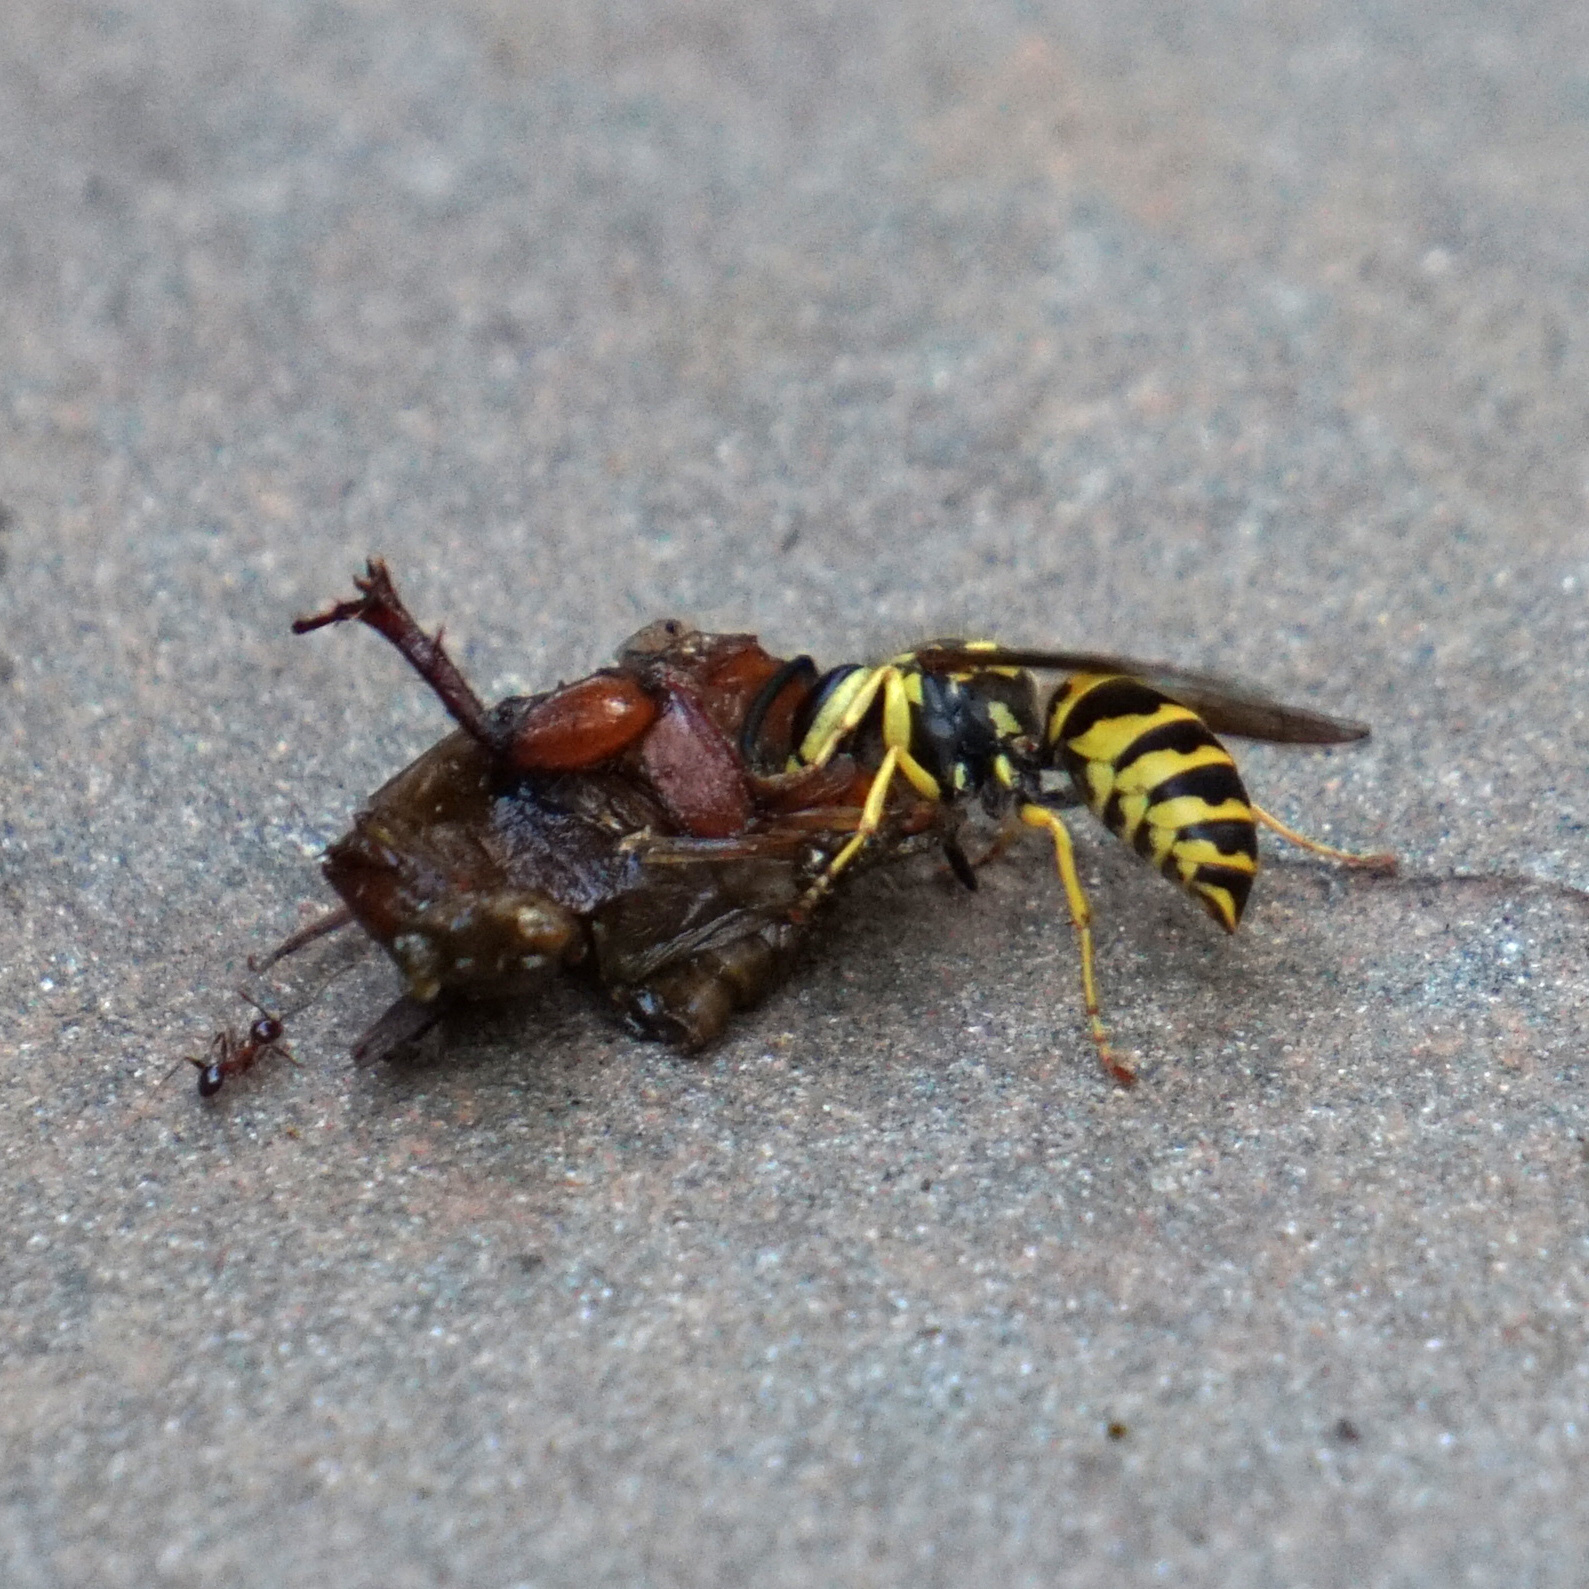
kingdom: Animalia
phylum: Arthropoda
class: Insecta
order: Hymenoptera
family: Vespidae
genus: Vespula
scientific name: Vespula maculifrons
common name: Eastern yellowjacket
